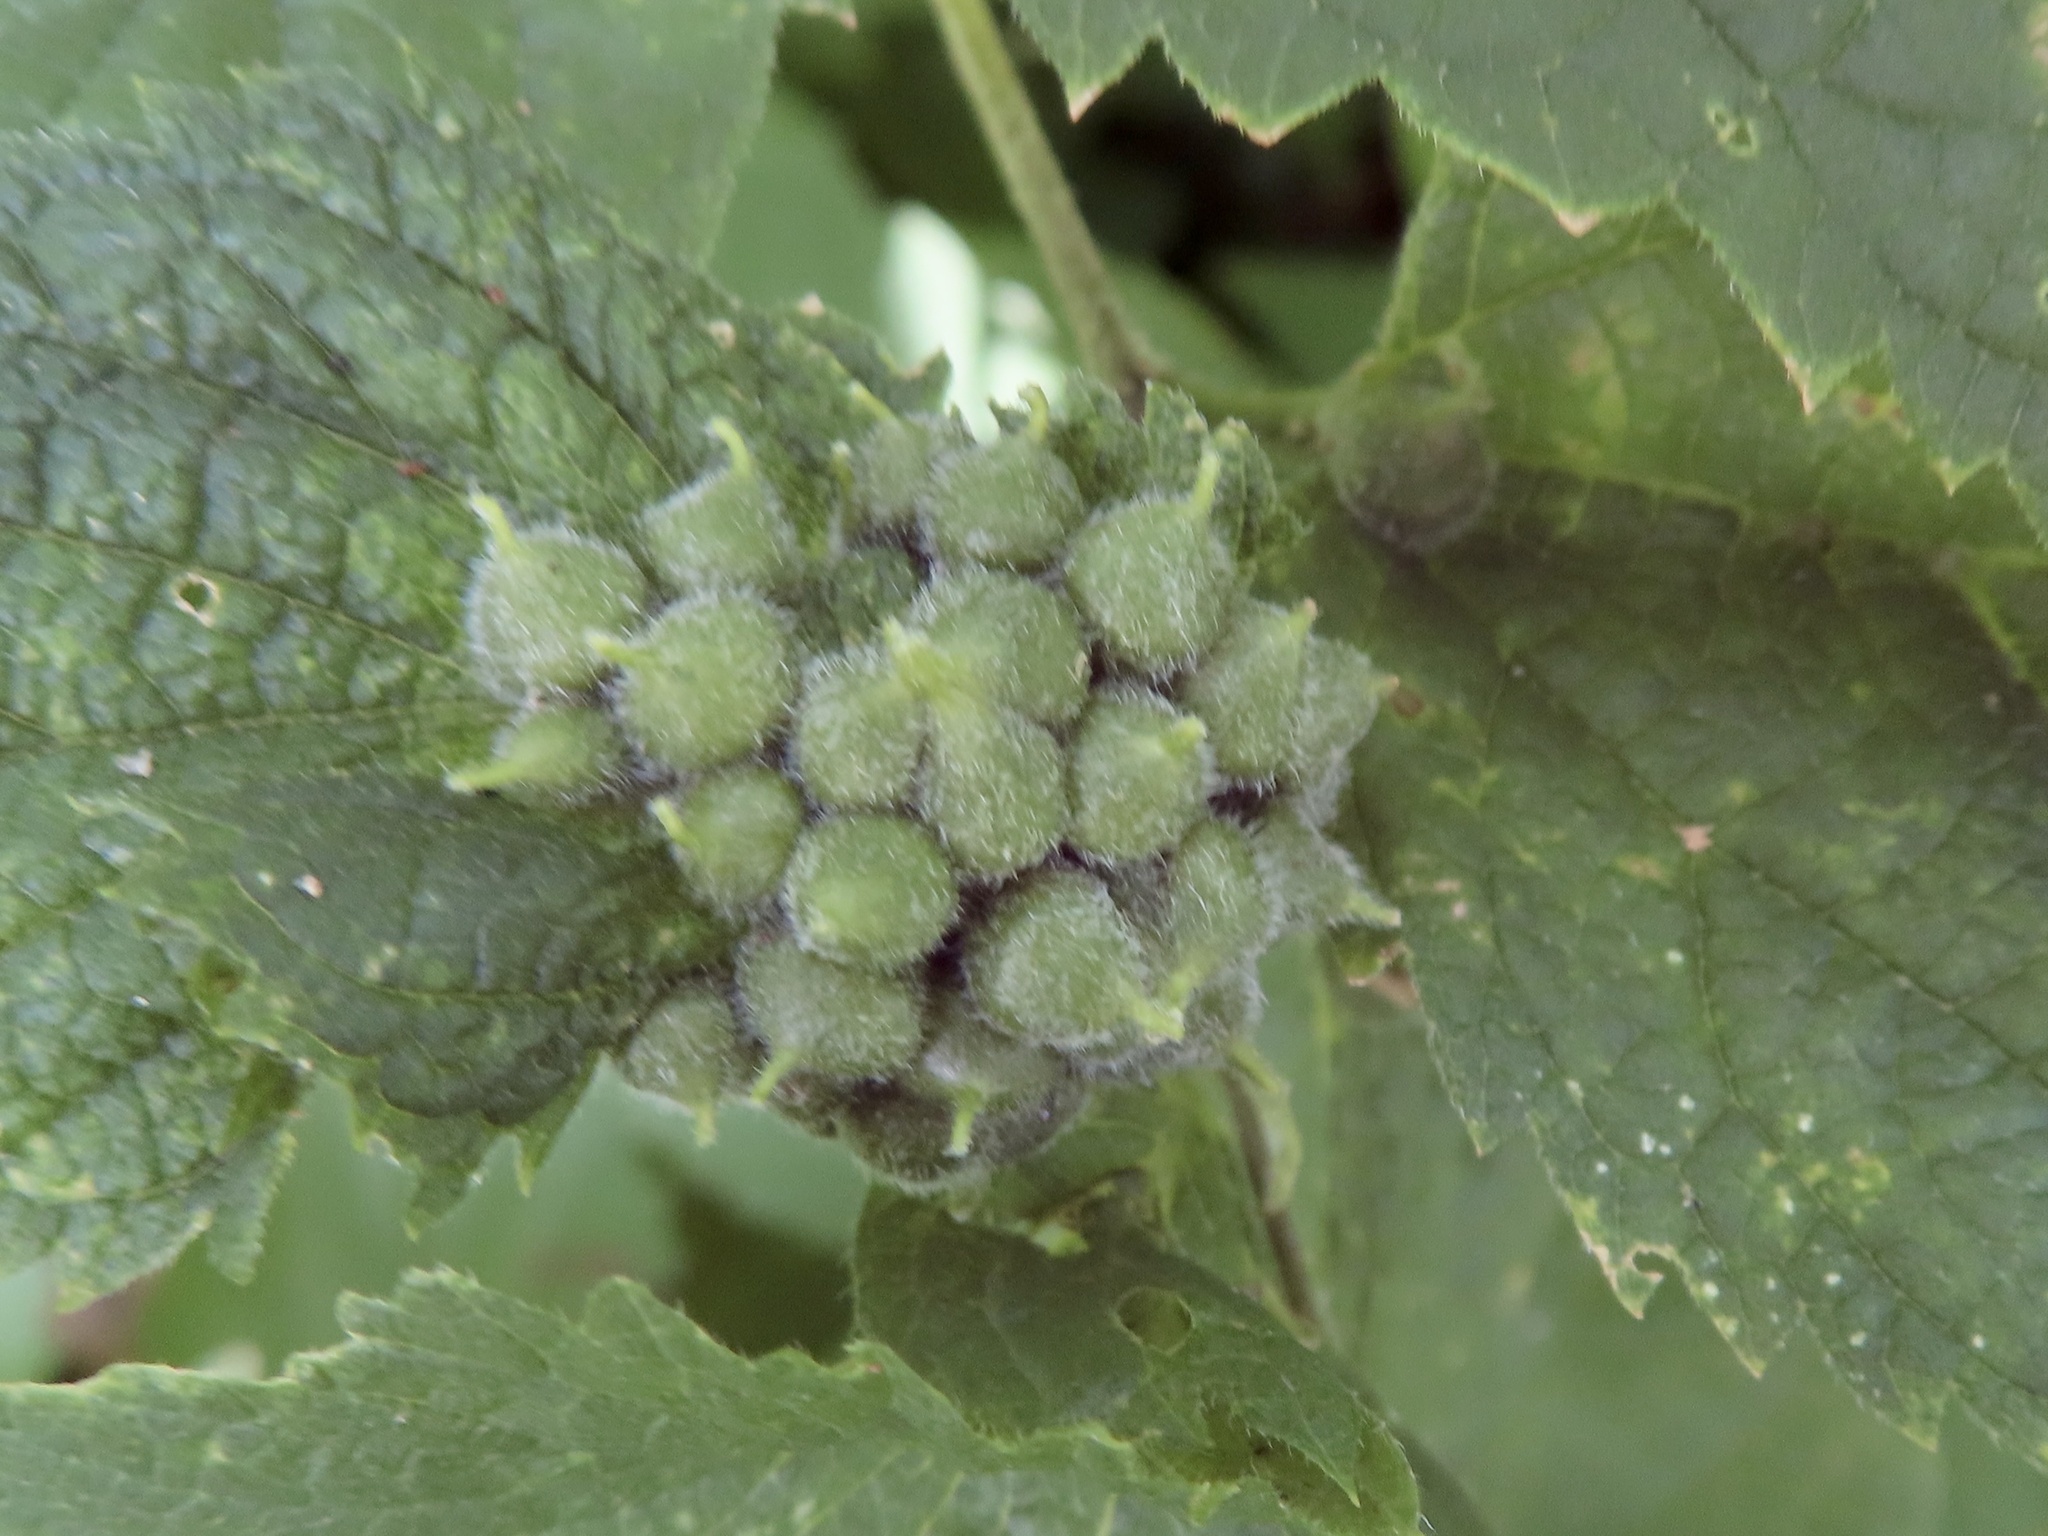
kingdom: Animalia
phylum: Arthropoda
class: Insecta
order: Diptera
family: Cecidomyiidae
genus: Celticecis
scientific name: Celticecis celtiphyllia
